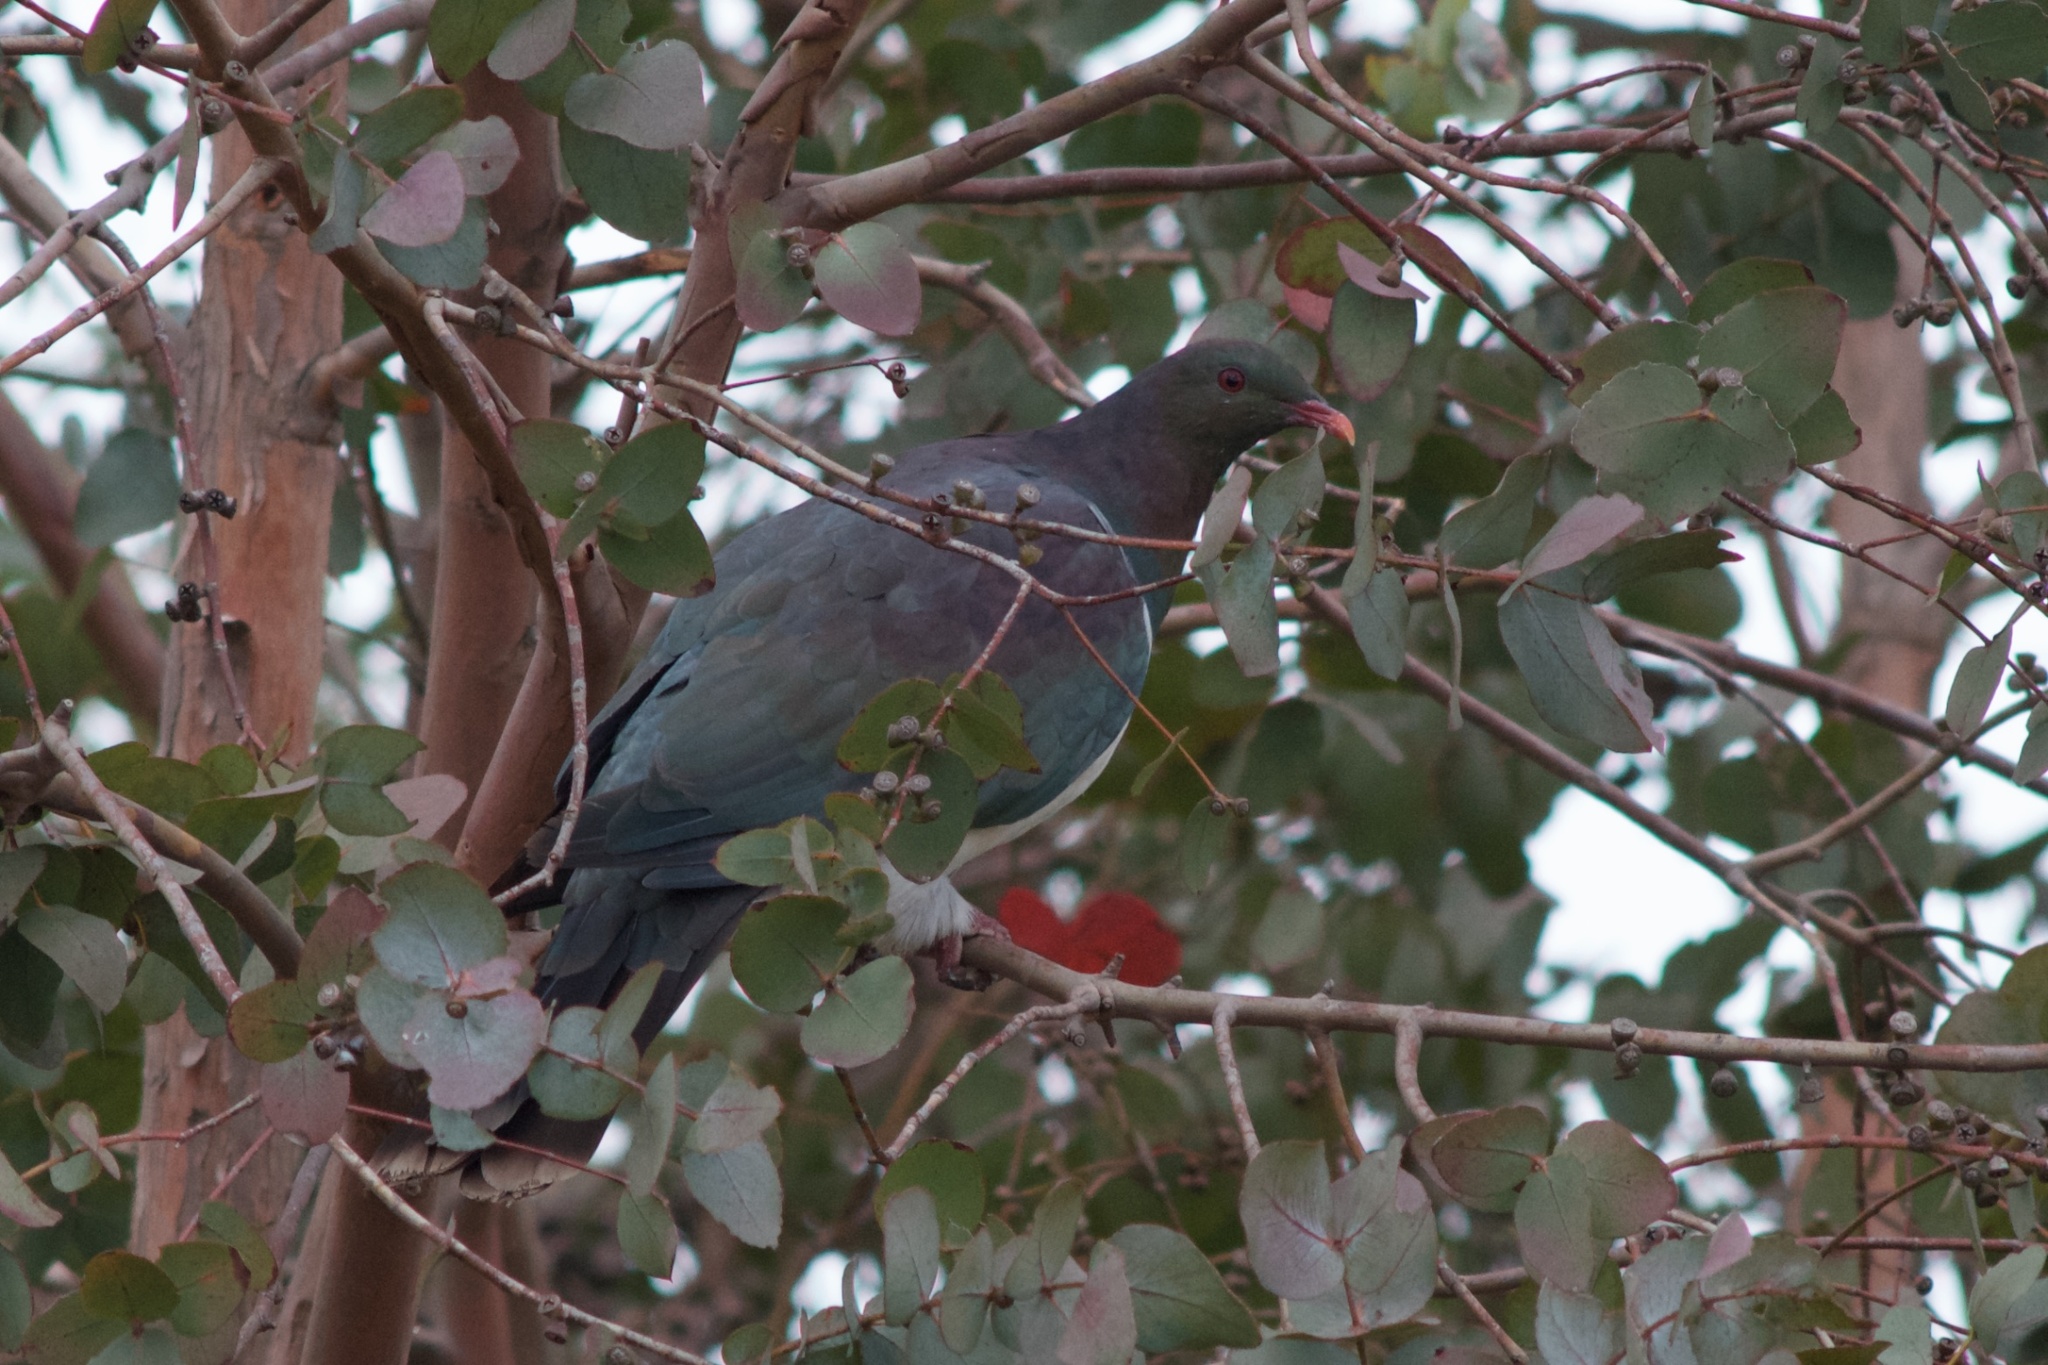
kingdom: Animalia
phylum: Chordata
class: Aves
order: Columbiformes
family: Columbidae
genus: Hemiphaga
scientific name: Hemiphaga novaeseelandiae
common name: New zealand pigeon
